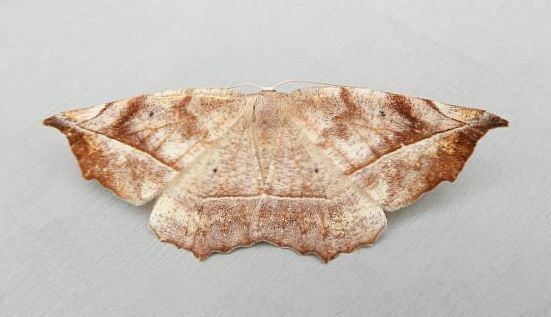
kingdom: Animalia
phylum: Arthropoda
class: Insecta
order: Lepidoptera
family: Geometridae
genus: Eutrapela
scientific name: Eutrapela clemataria
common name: Curved-toothed geometer
